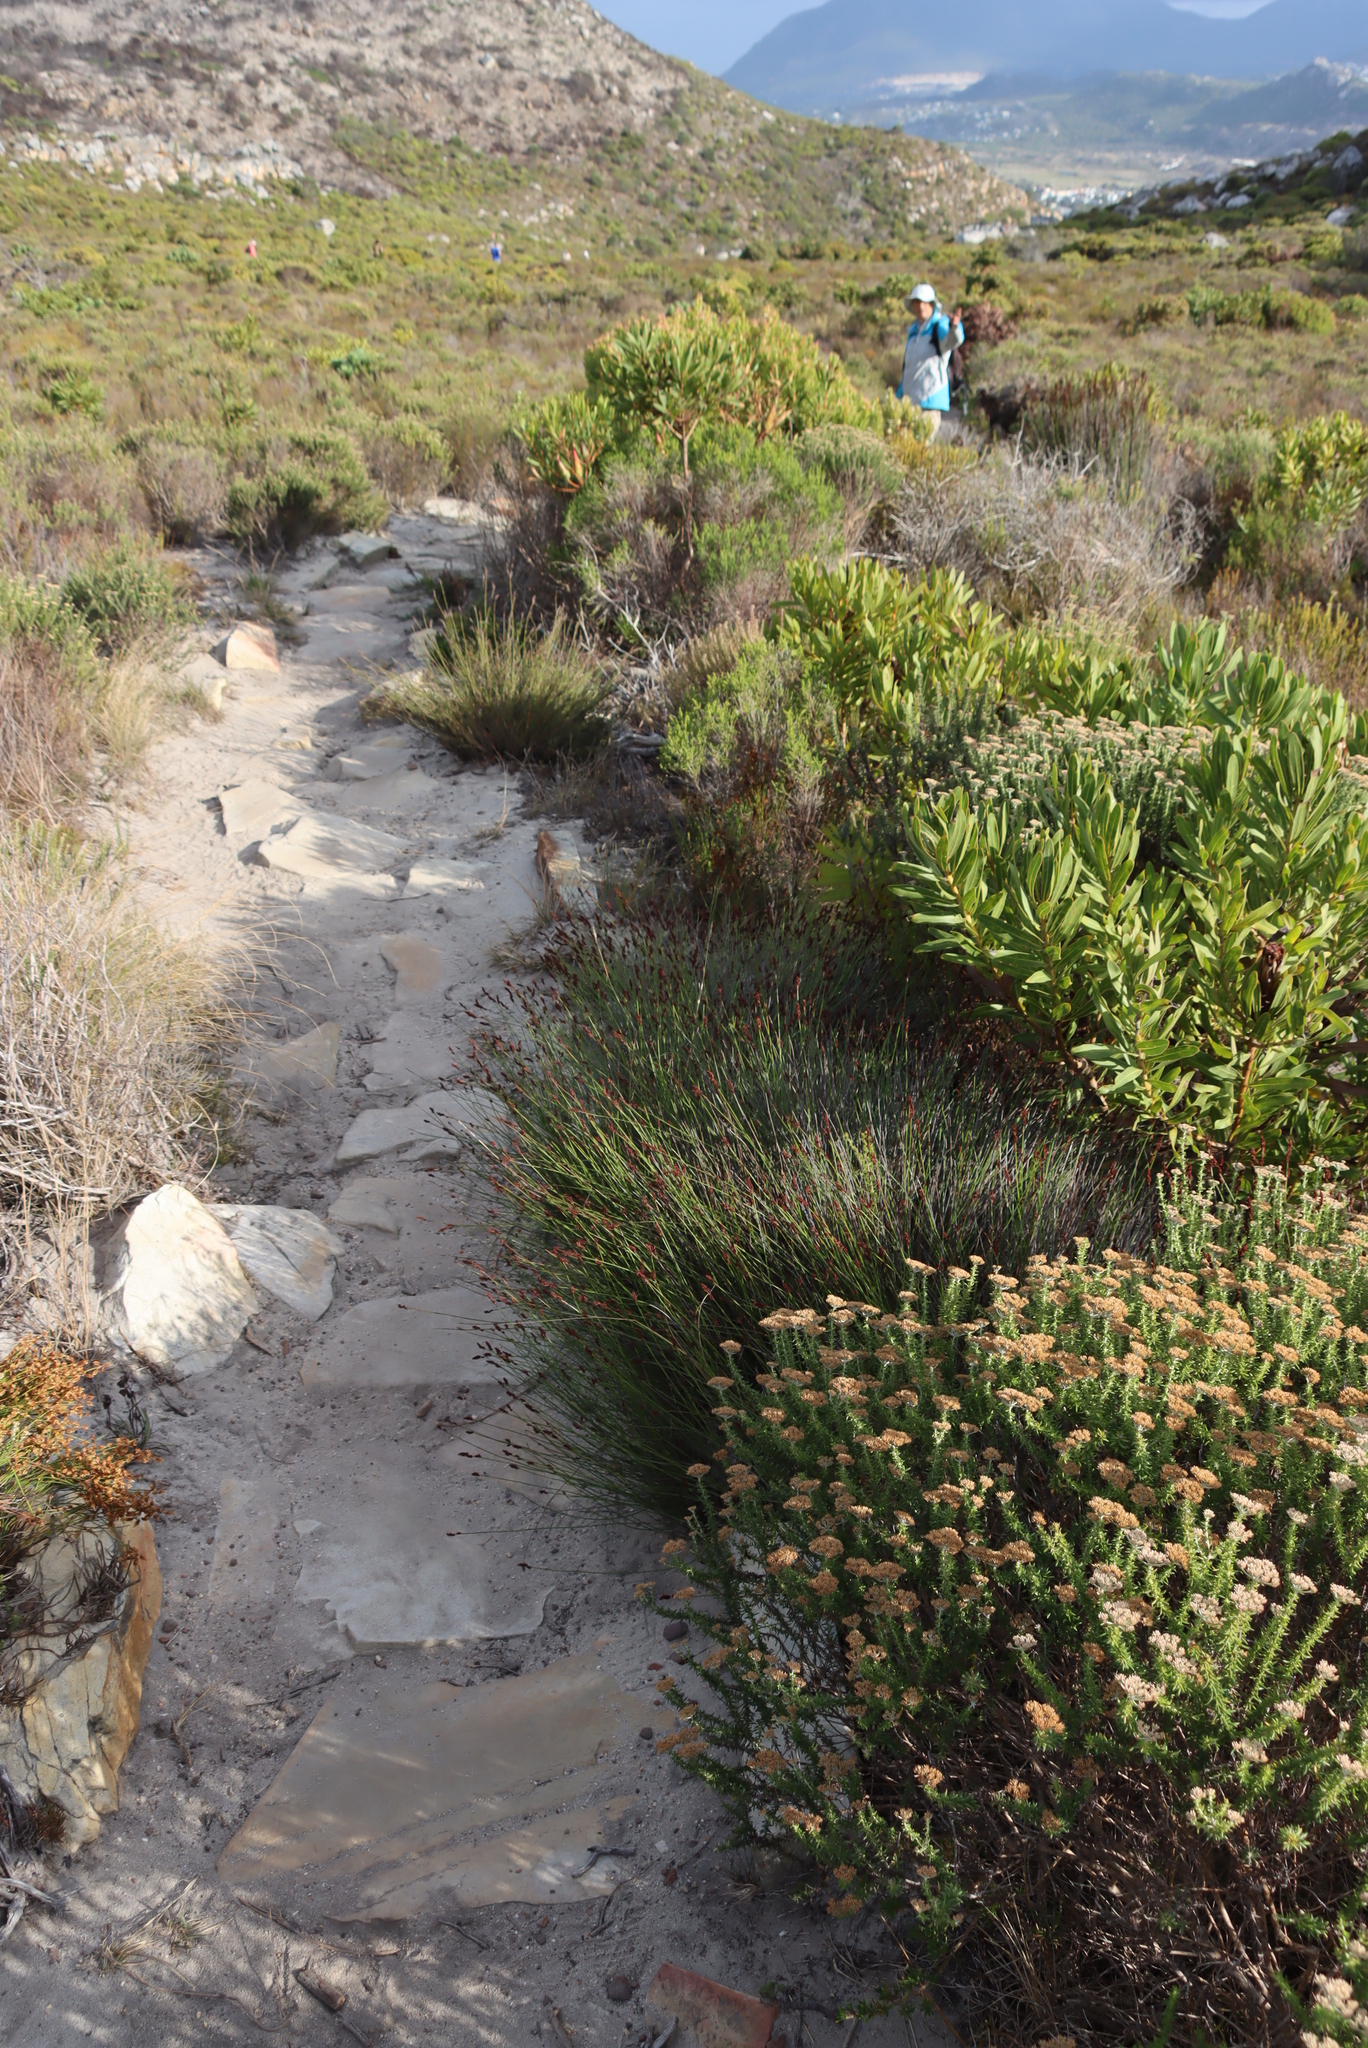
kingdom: Plantae
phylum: Tracheophyta
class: Magnoliopsida
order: Proteales
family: Proteaceae
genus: Protea
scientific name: Protea lepidocarpodendron
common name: Black-bearded protea
